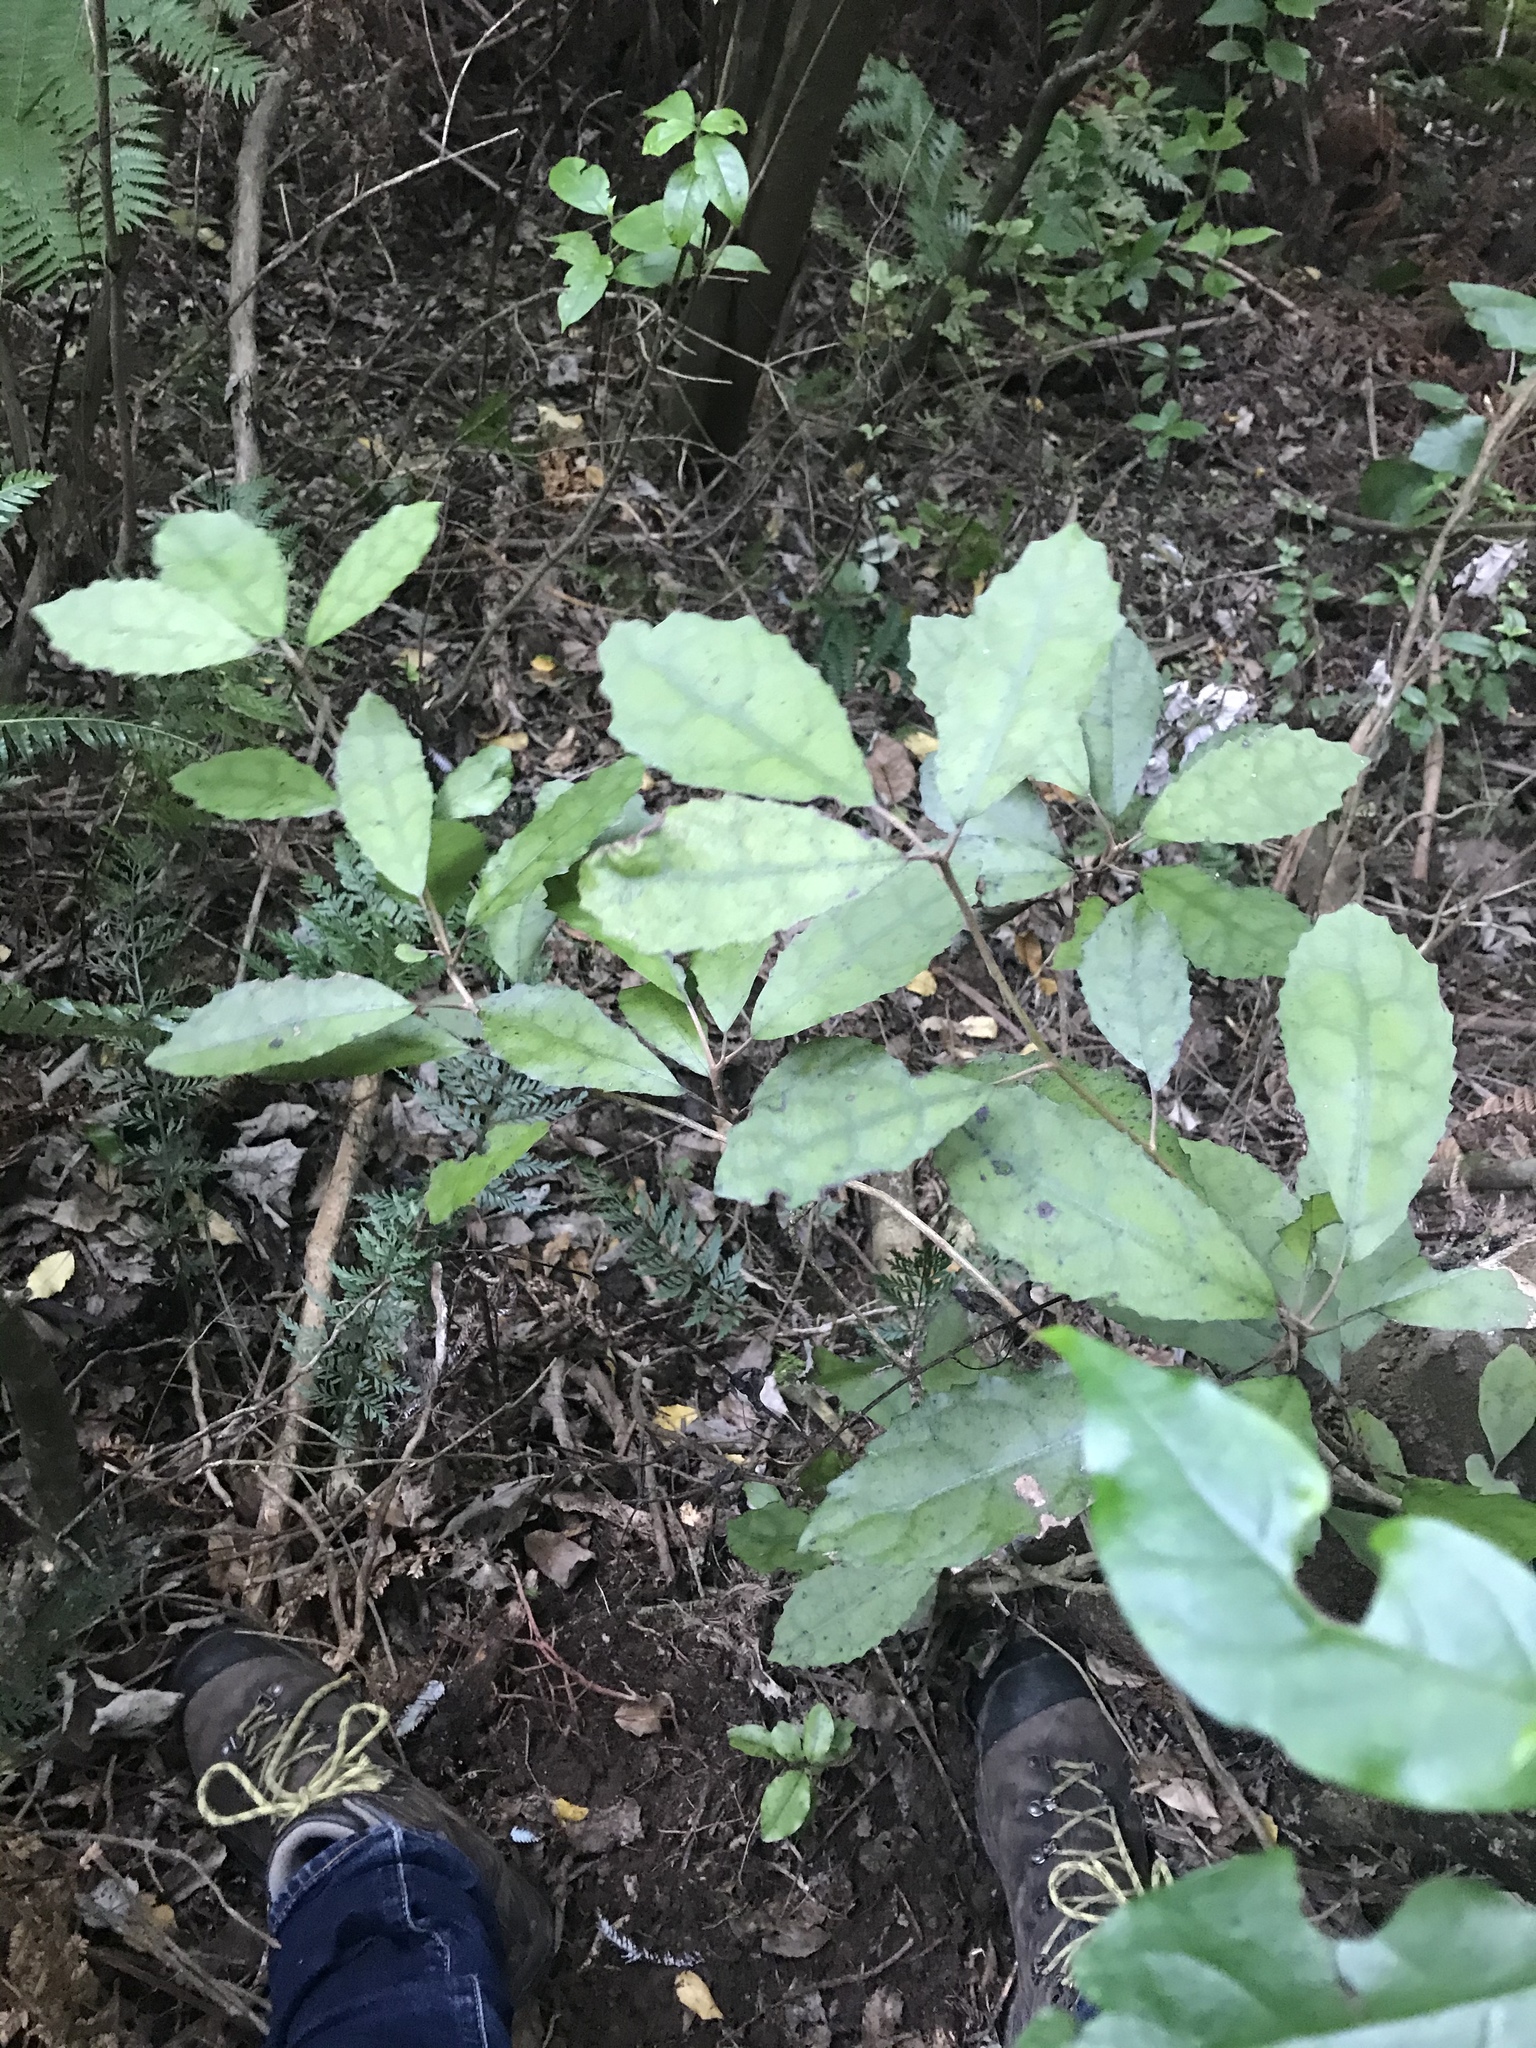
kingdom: Plantae
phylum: Tracheophyta
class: Magnoliopsida
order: Asterales
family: Asteraceae
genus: Olearia
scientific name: Olearia rani
